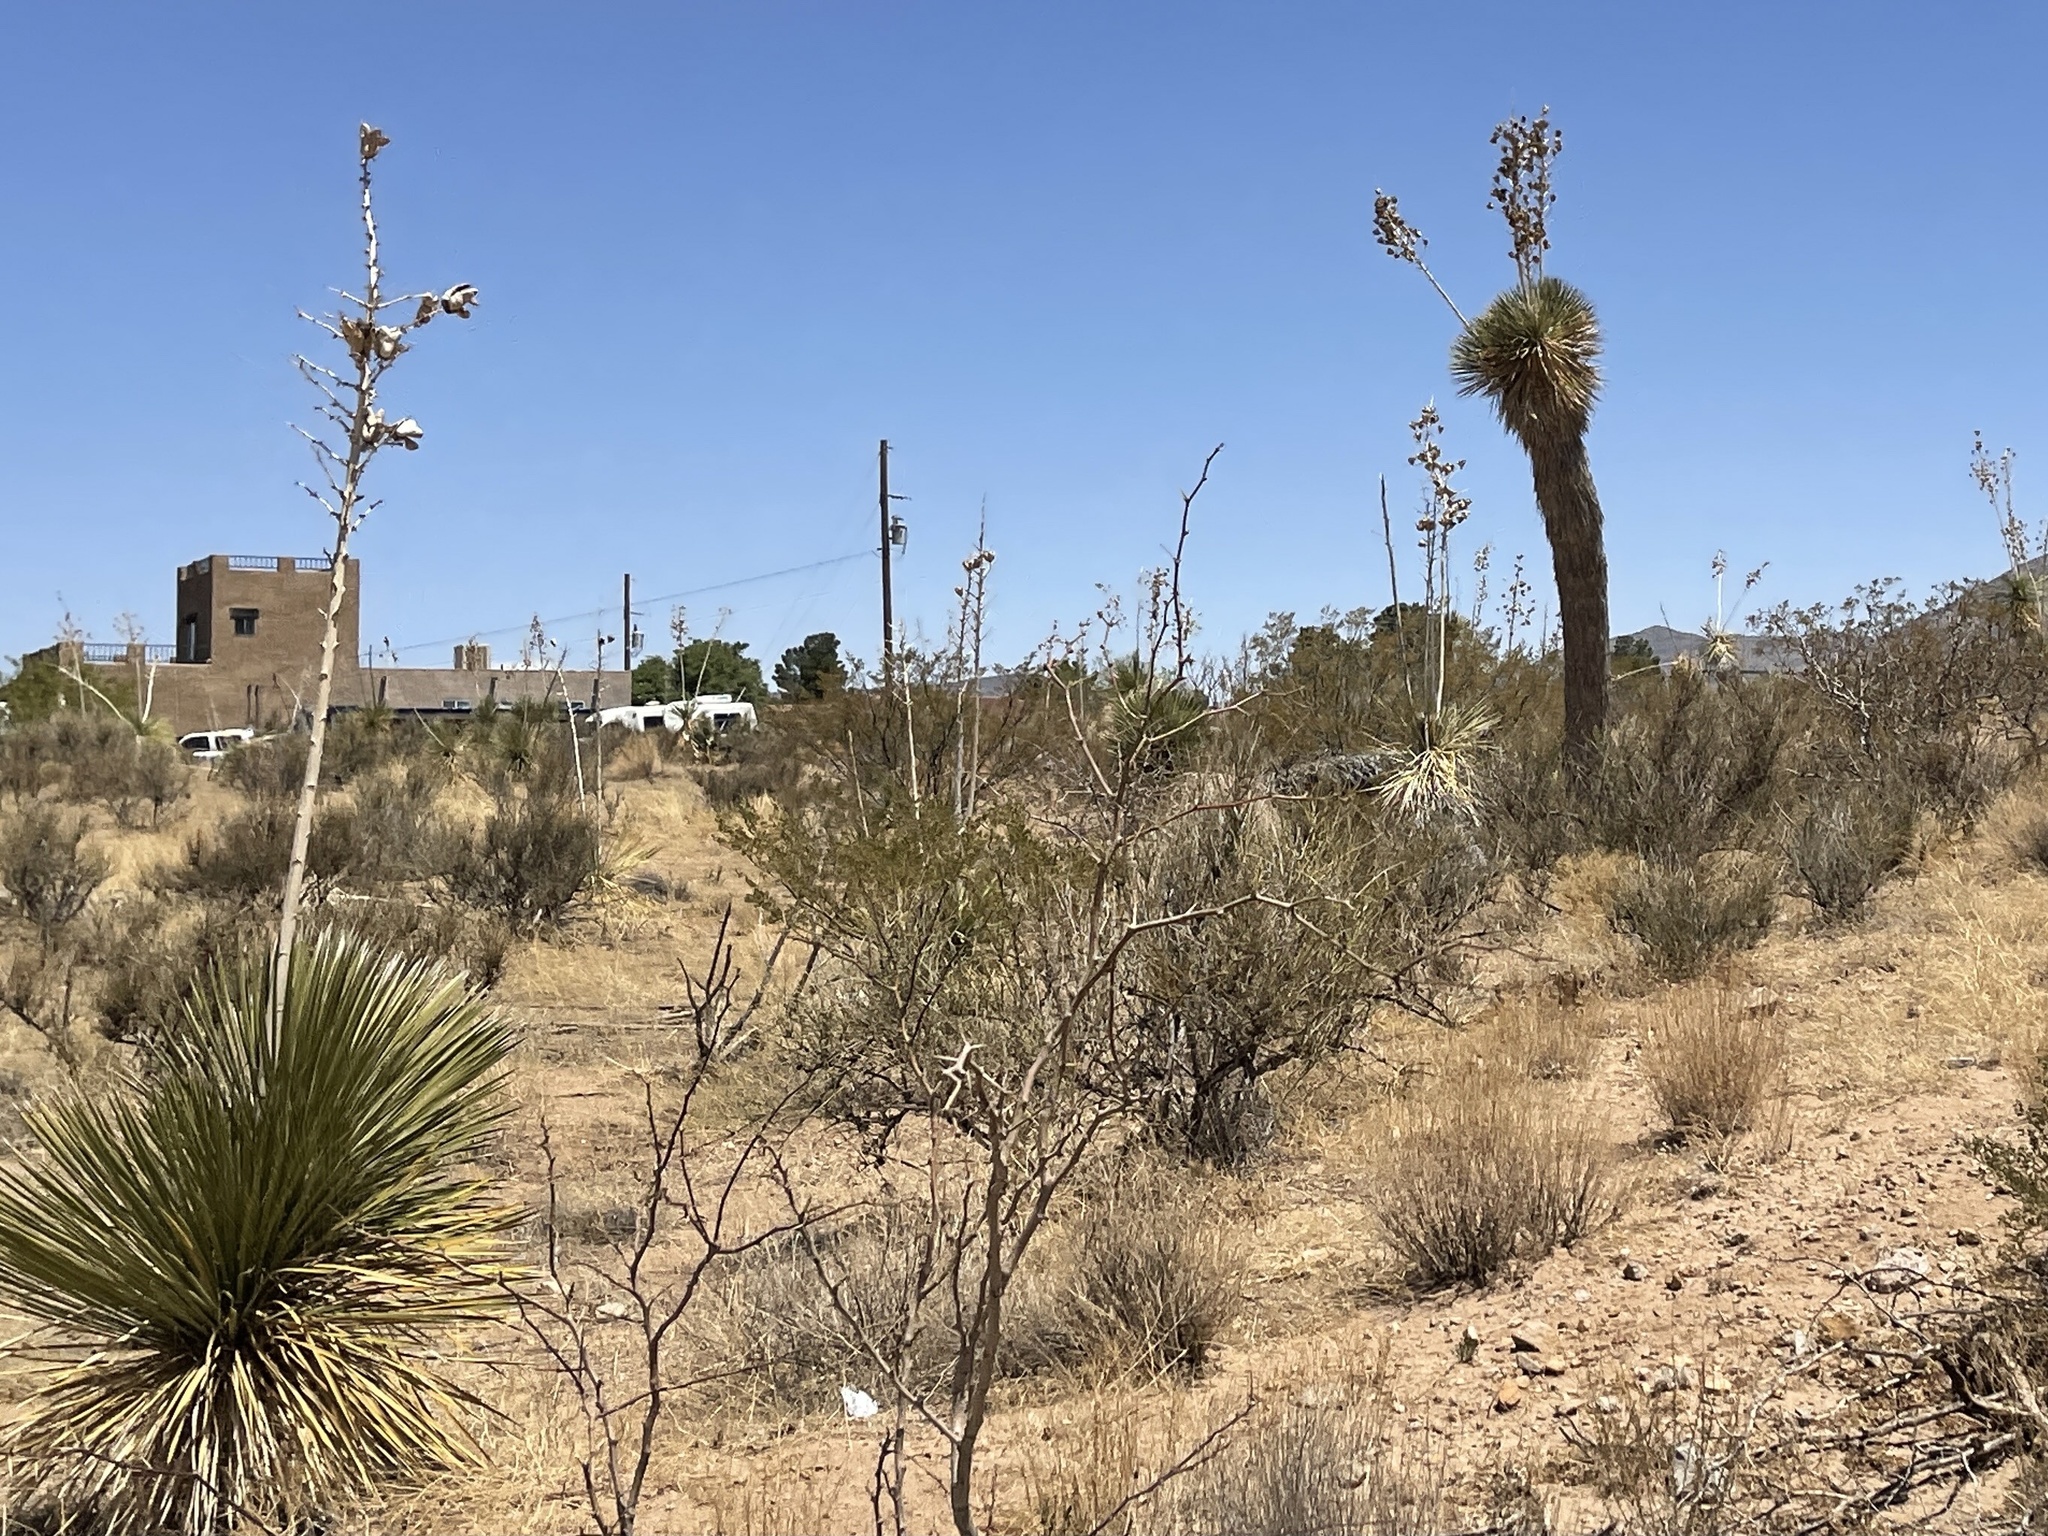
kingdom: Plantae
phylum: Tracheophyta
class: Liliopsida
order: Asparagales
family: Asparagaceae
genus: Yucca
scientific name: Yucca elata
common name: Palmella
